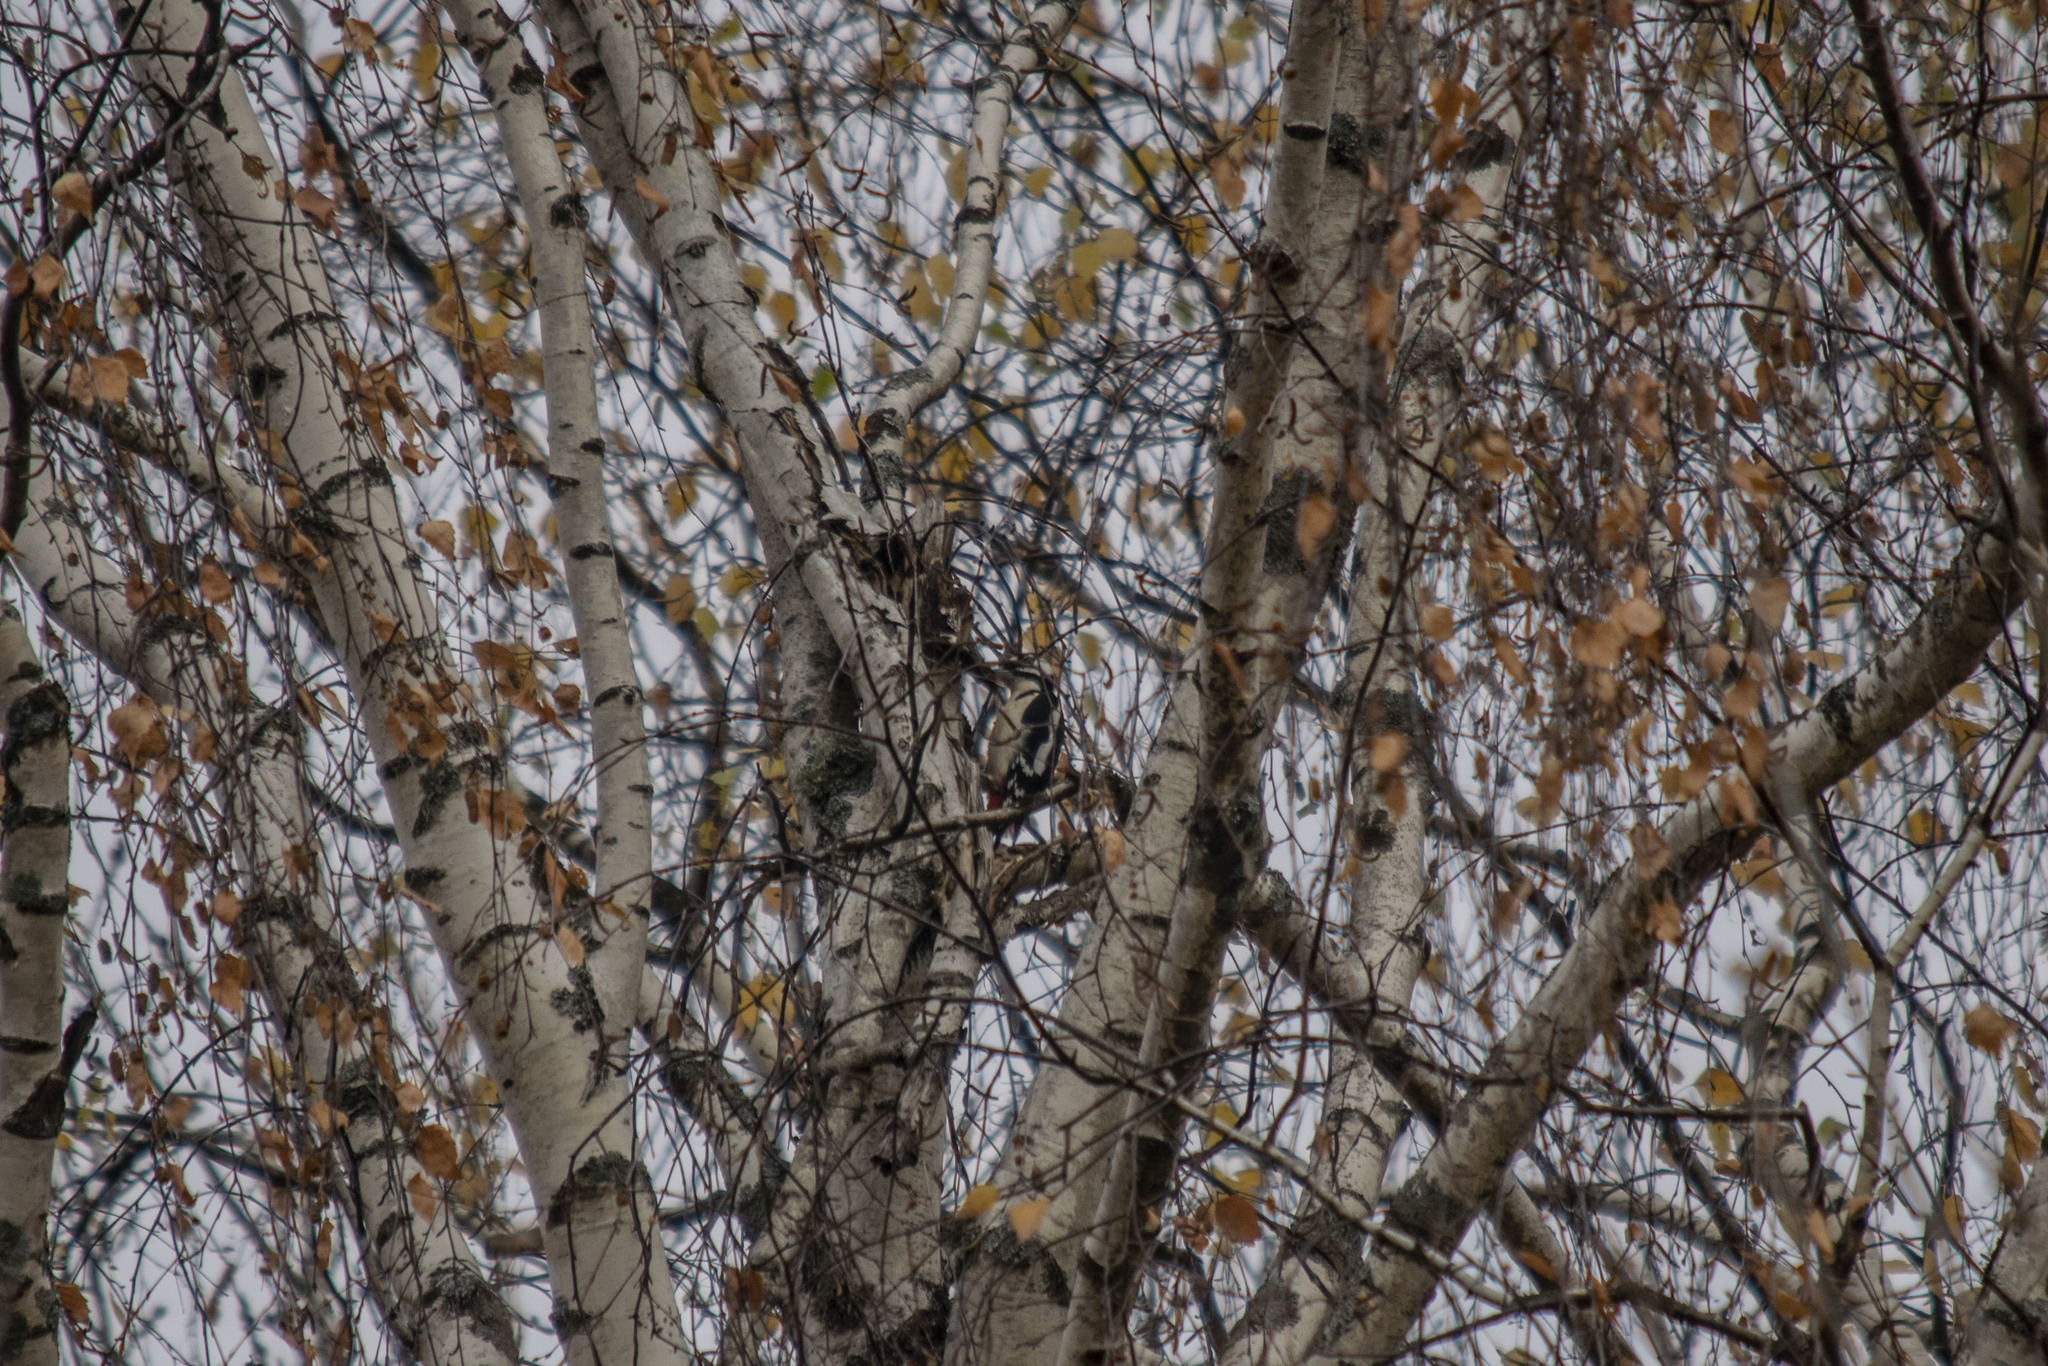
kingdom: Animalia
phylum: Chordata
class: Aves
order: Piciformes
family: Picidae
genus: Dendrocopos
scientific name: Dendrocopos major
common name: Great spotted woodpecker
